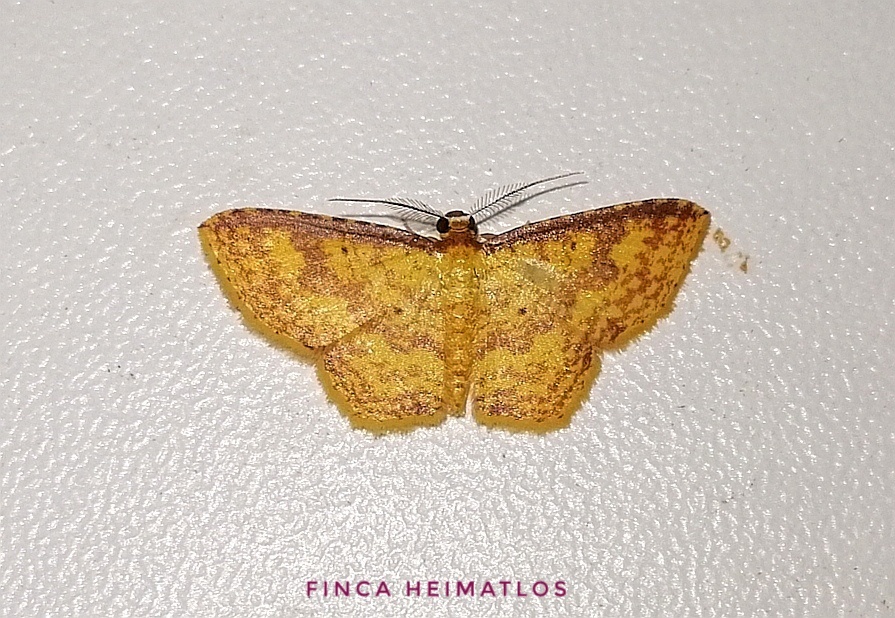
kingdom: Animalia
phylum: Arthropoda
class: Insecta
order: Lepidoptera
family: Geometridae
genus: Eois
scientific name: Eois dryope
